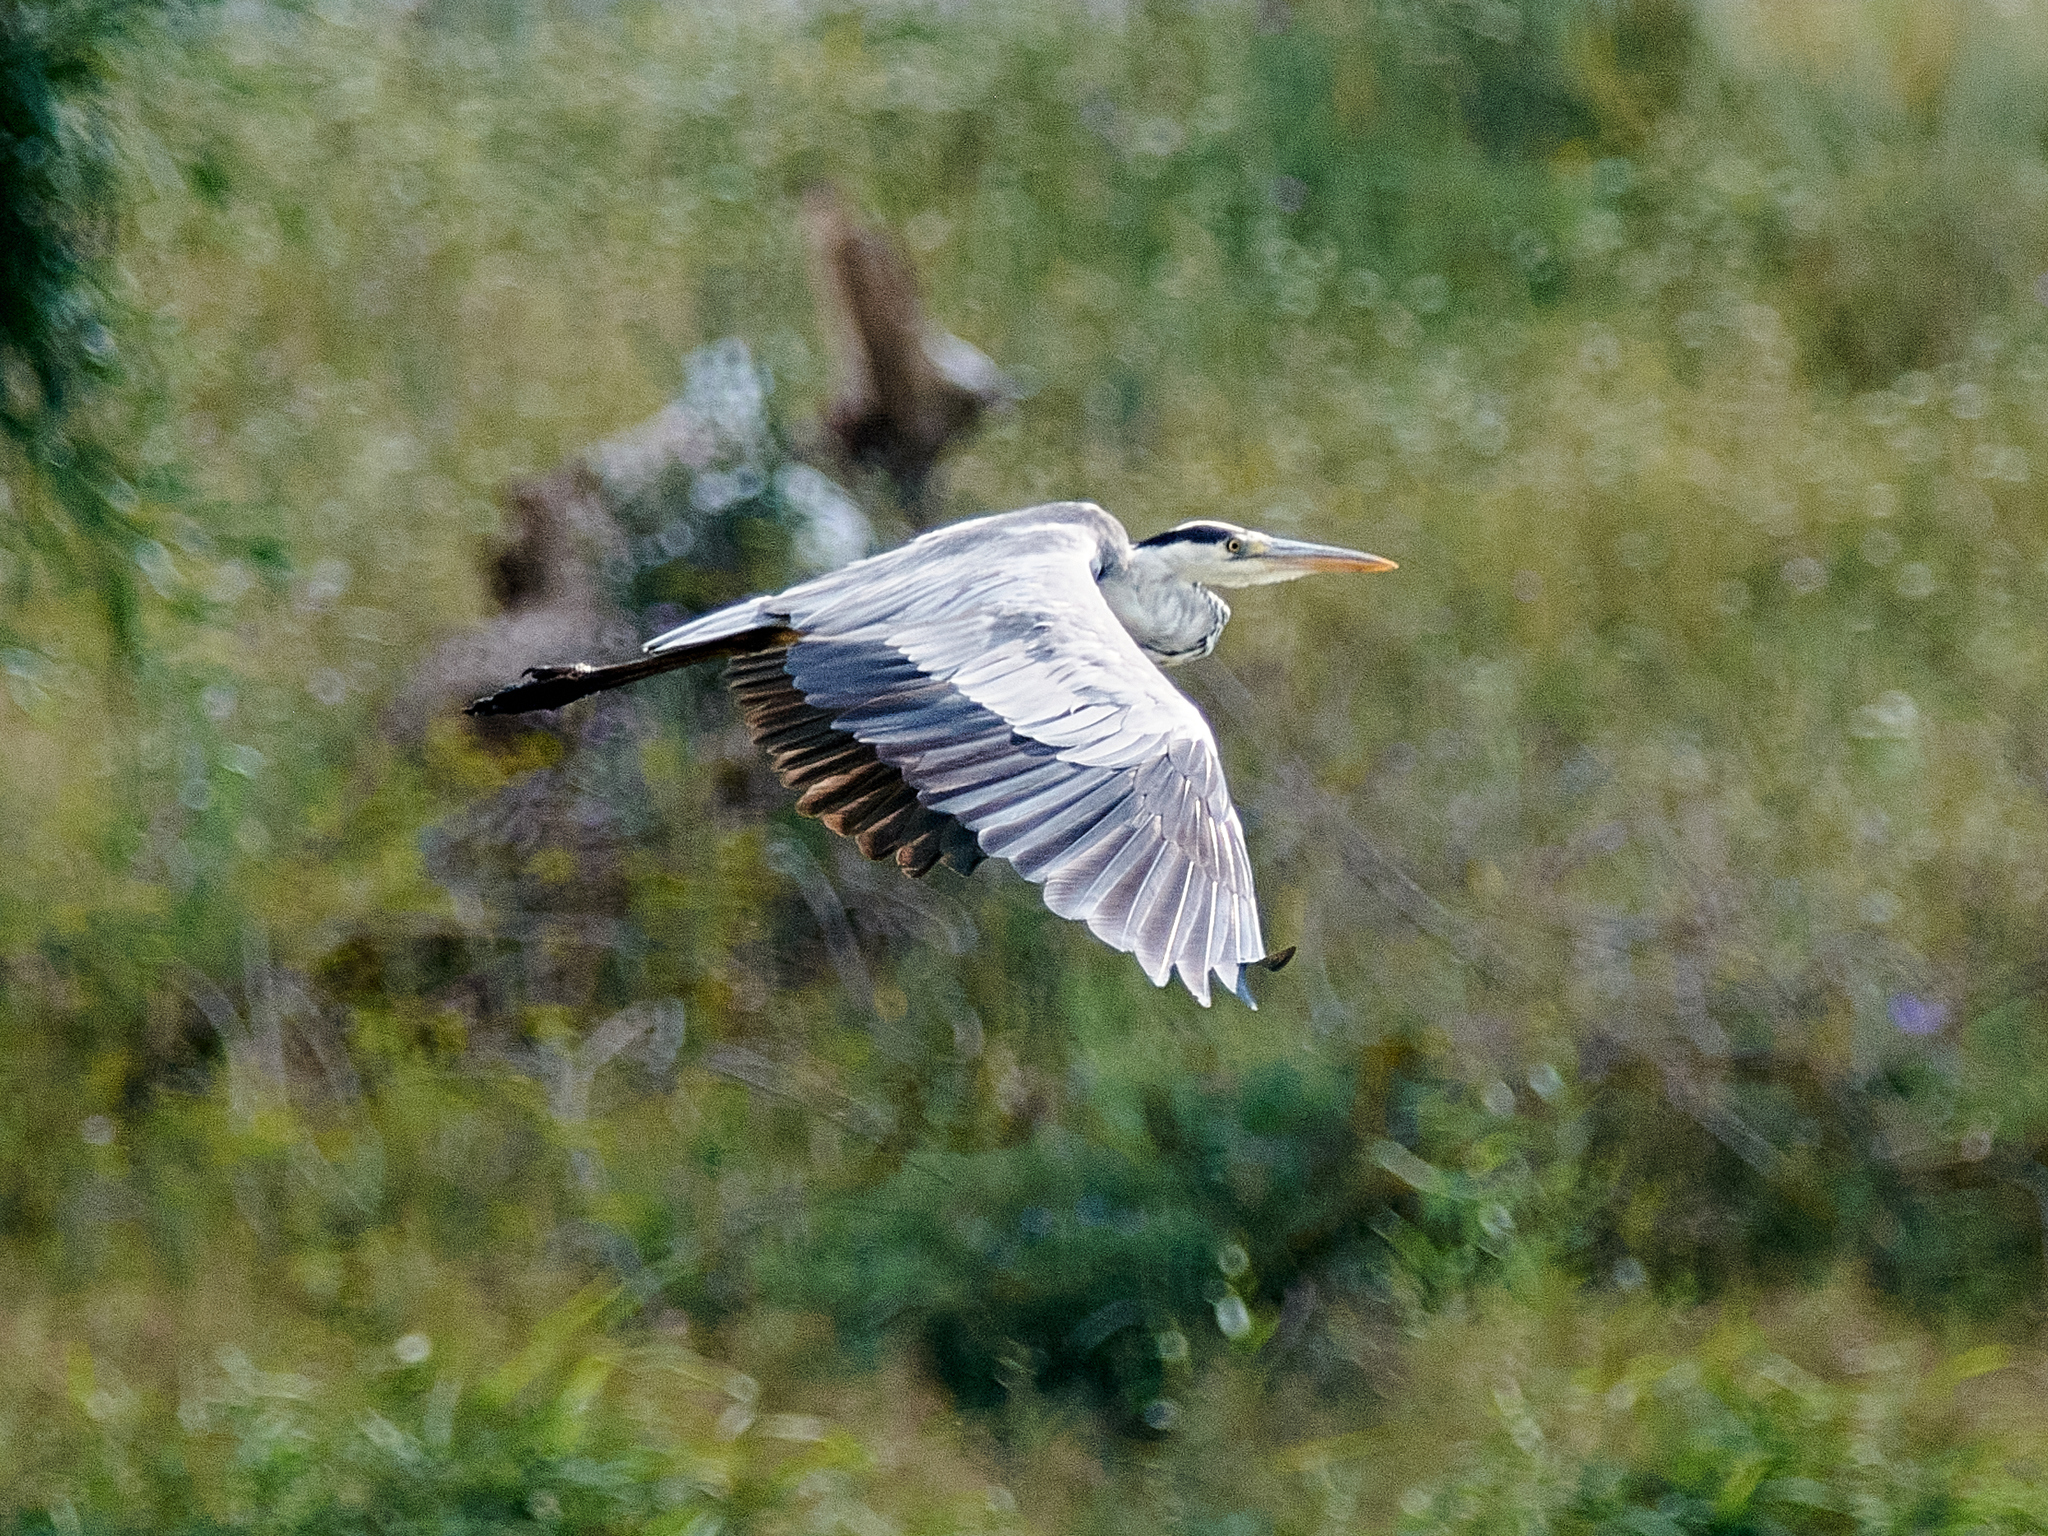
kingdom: Animalia
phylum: Chordata
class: Aves
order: Pelecaniformes
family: Ardeidae
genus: Ardea
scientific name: Ardea cinerea
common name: Grey heron
